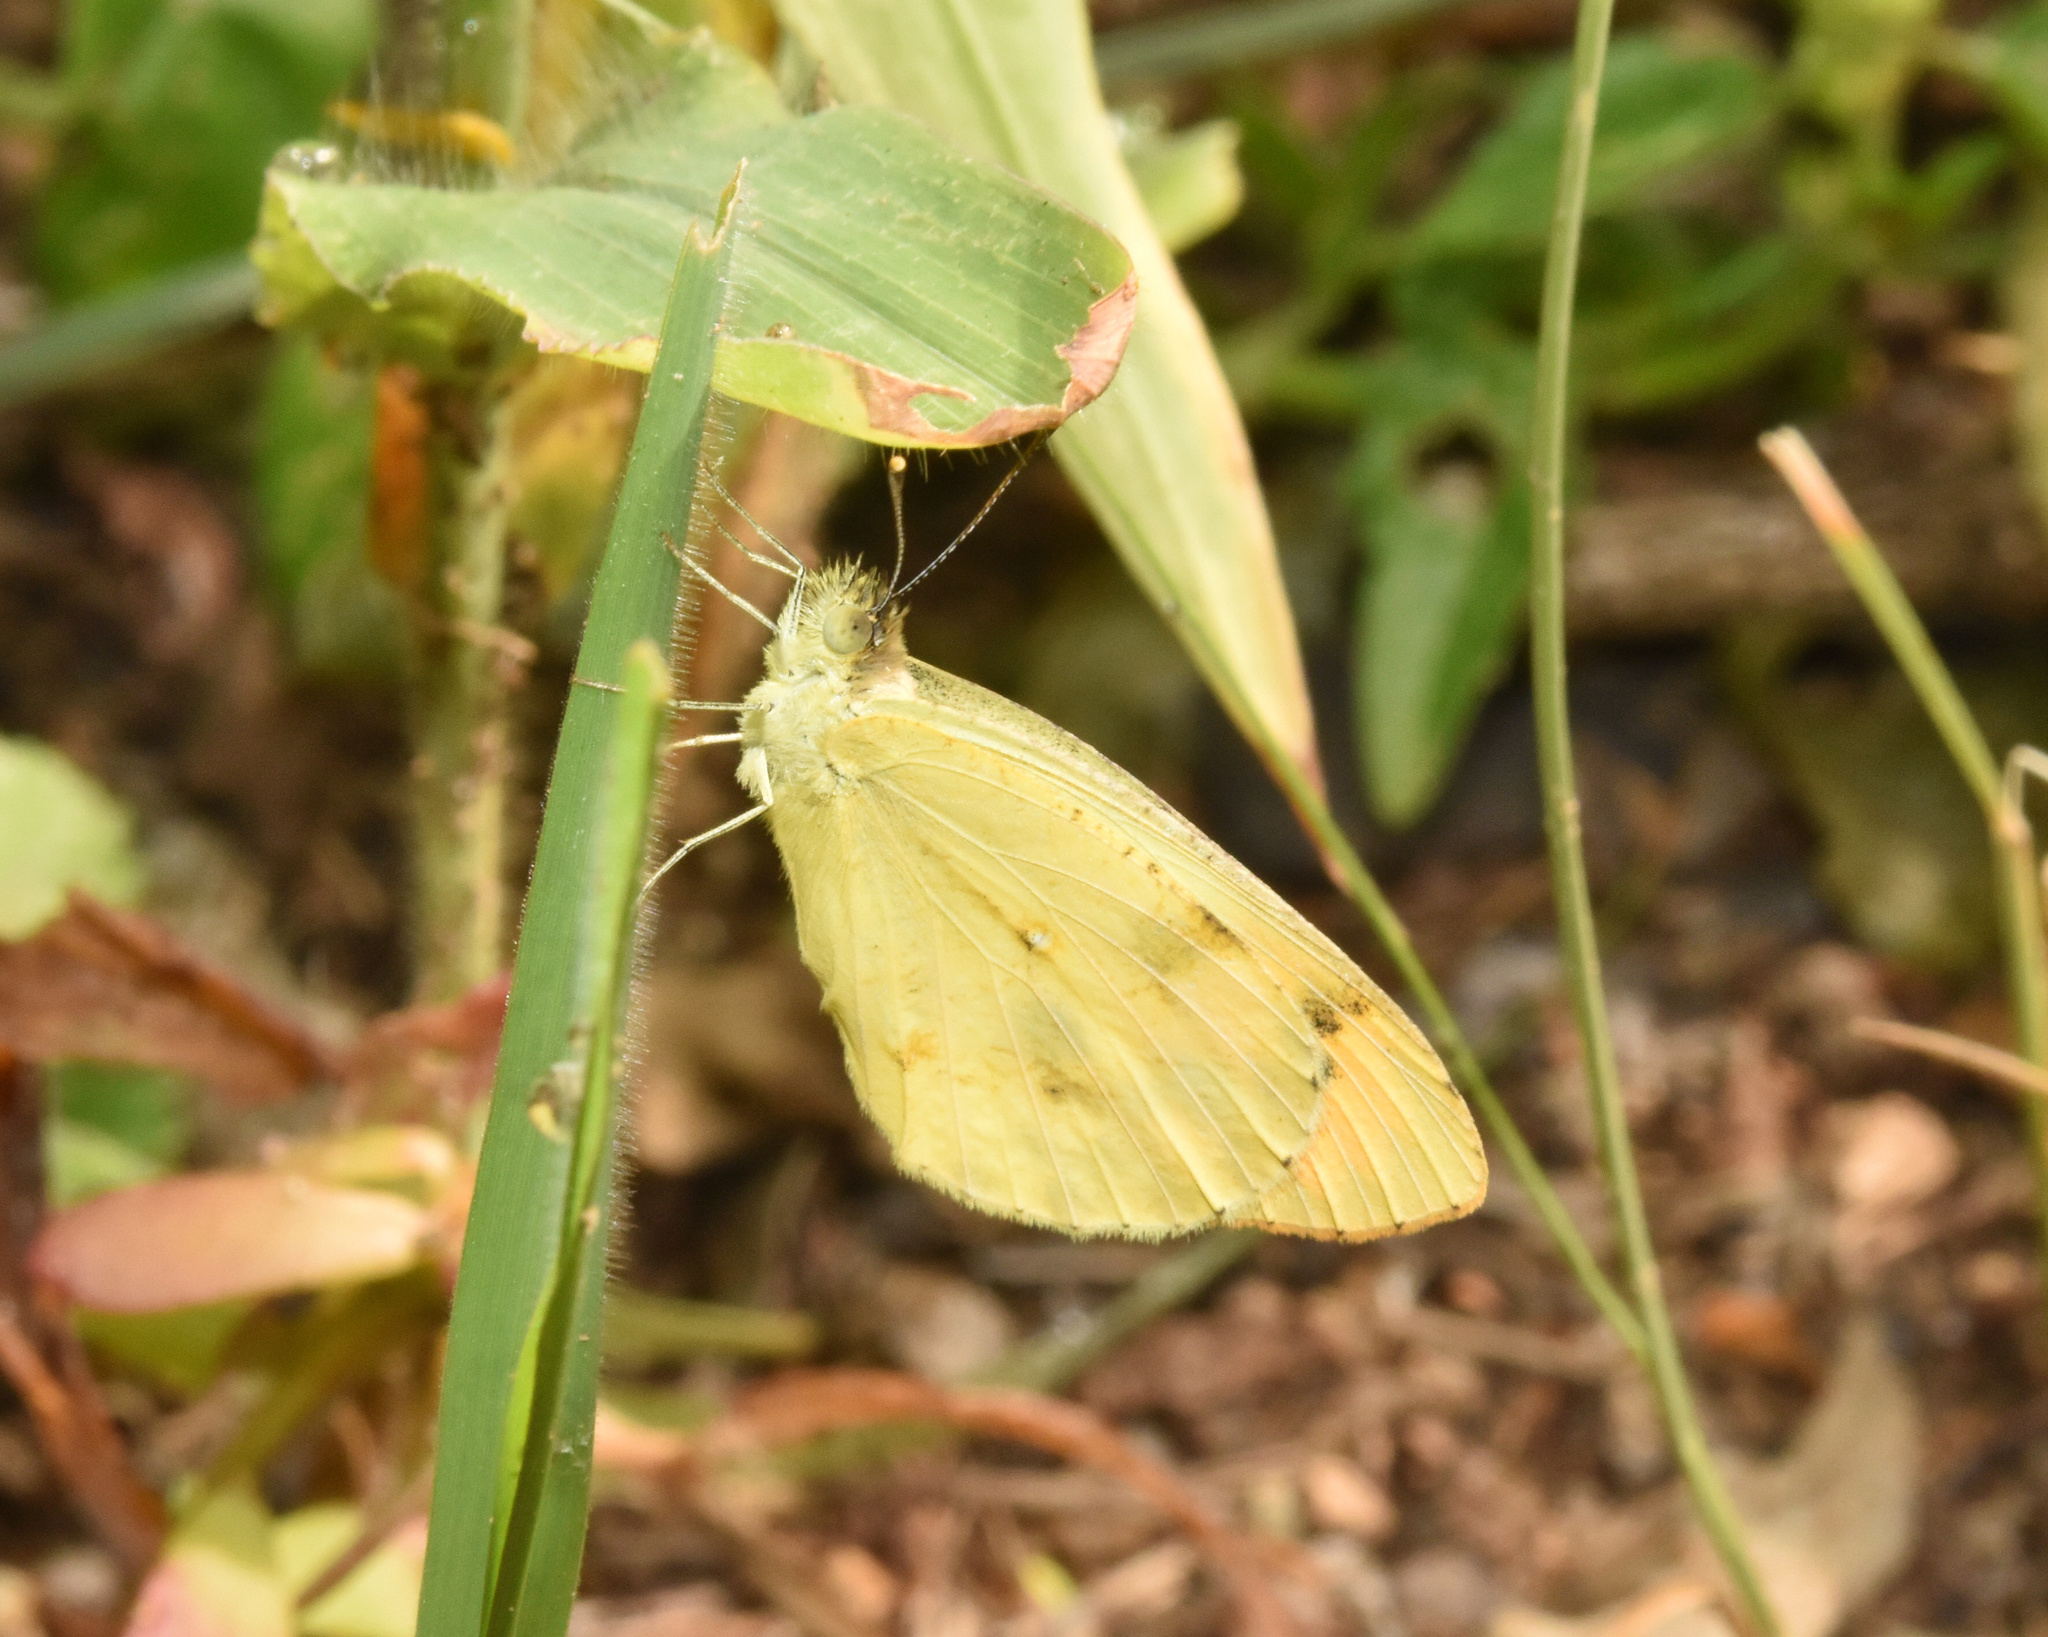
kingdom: Animalia
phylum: Arthropoda
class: Insecta
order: Lepidoptera
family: Pieridae
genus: Colotis
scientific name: Colotis auxo
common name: Sulphur orange tip
